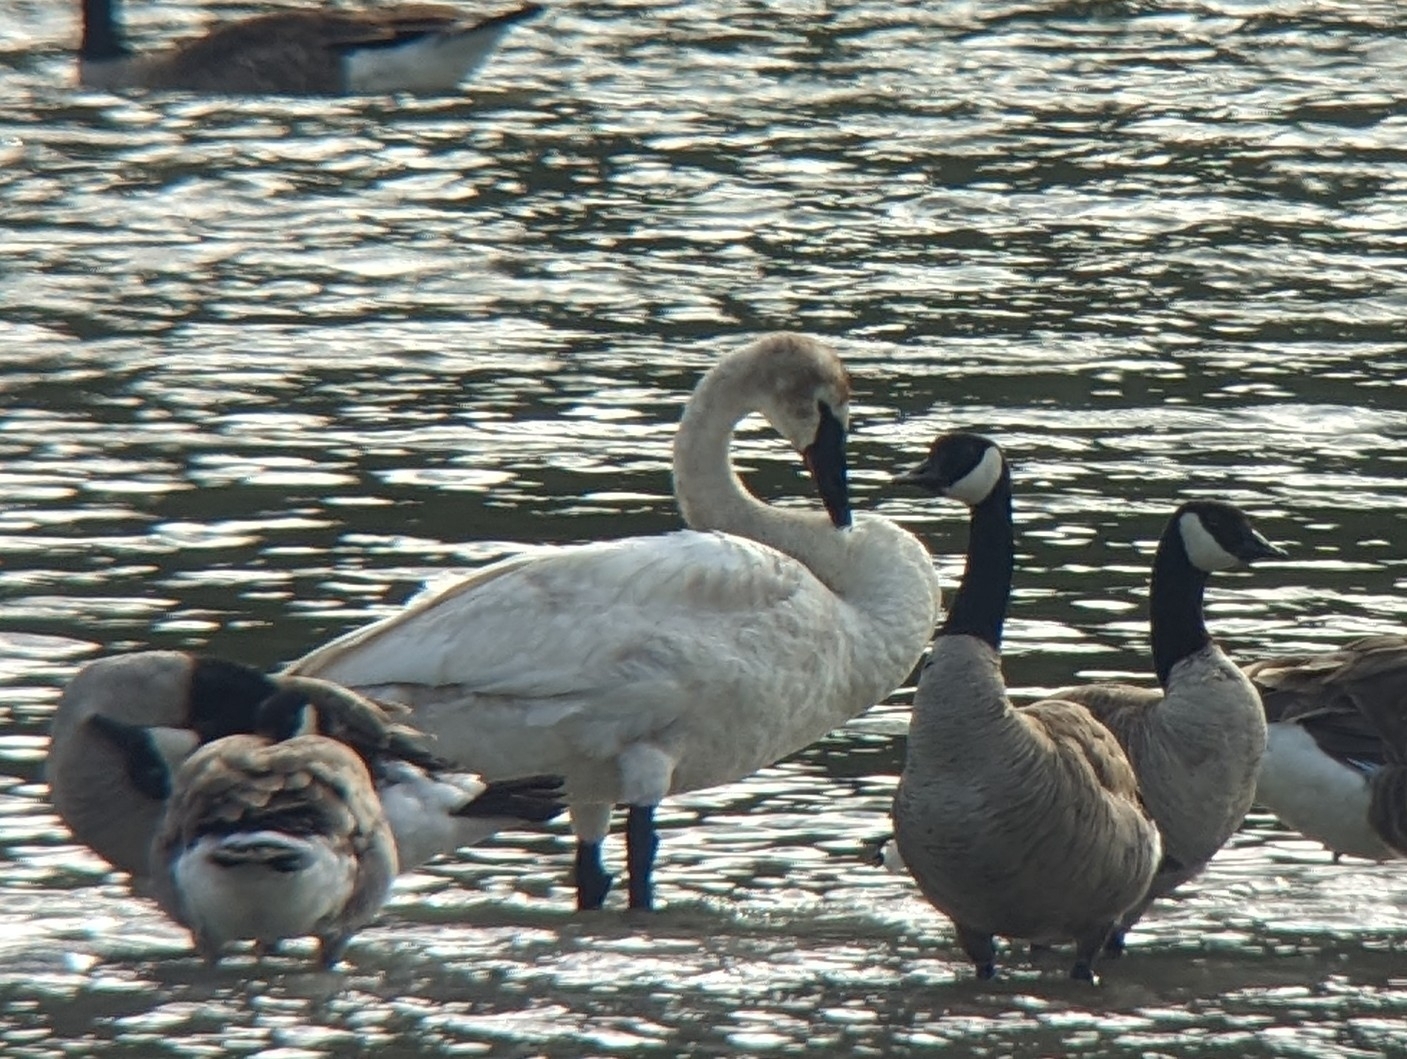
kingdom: Animalia
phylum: Chordata
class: Aves
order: Anseriformes
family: Anatidae
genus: Cygnus
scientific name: Cygnus buccinator
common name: Trumpeter swan
